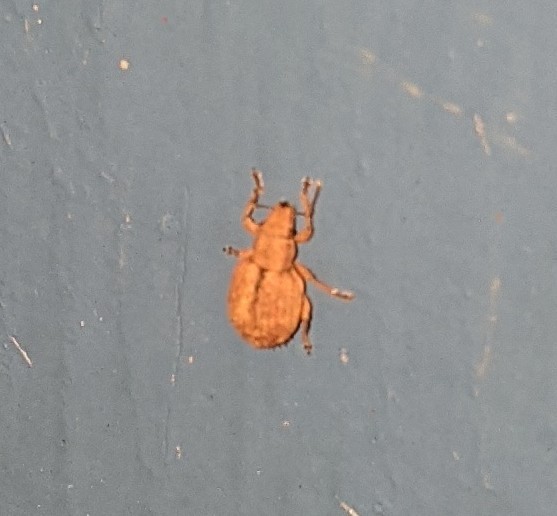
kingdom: Animalia
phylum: Arthropoda
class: Insecta
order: Coleoptera
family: Curculionidae
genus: Strophosoma
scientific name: Strophosoma melanogrammum
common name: Weevil
